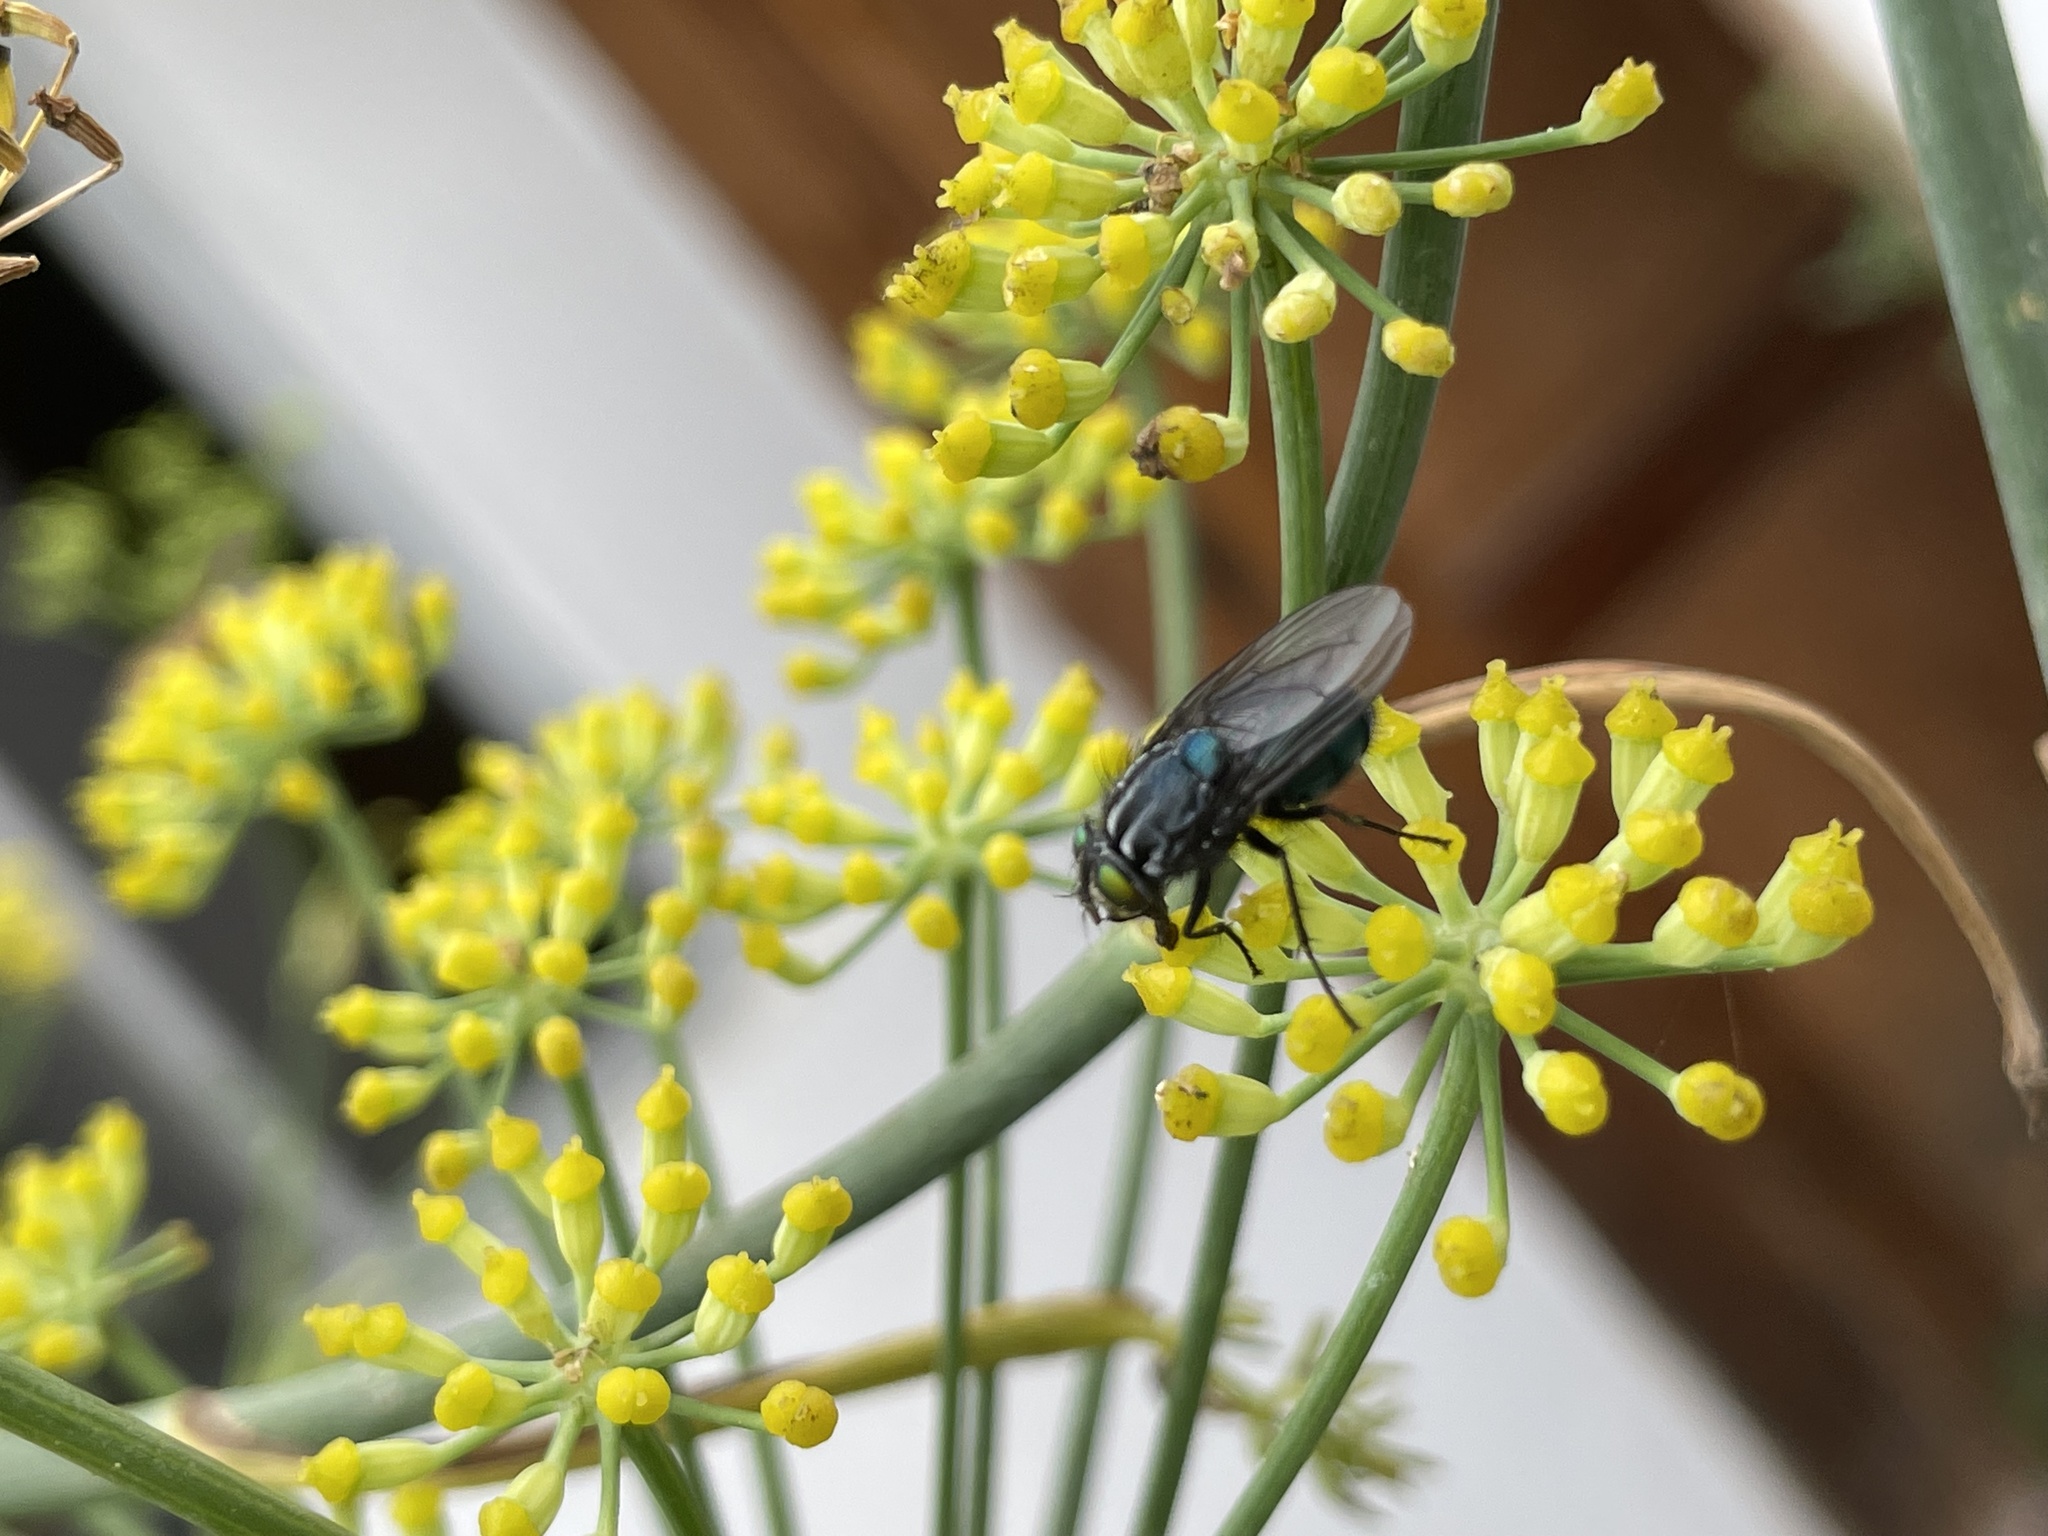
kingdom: Animalia
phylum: Arthropoda
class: Insecta
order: Diptera
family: Calliphoridae
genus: Sarconesia
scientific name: Sarconesia magellanica
